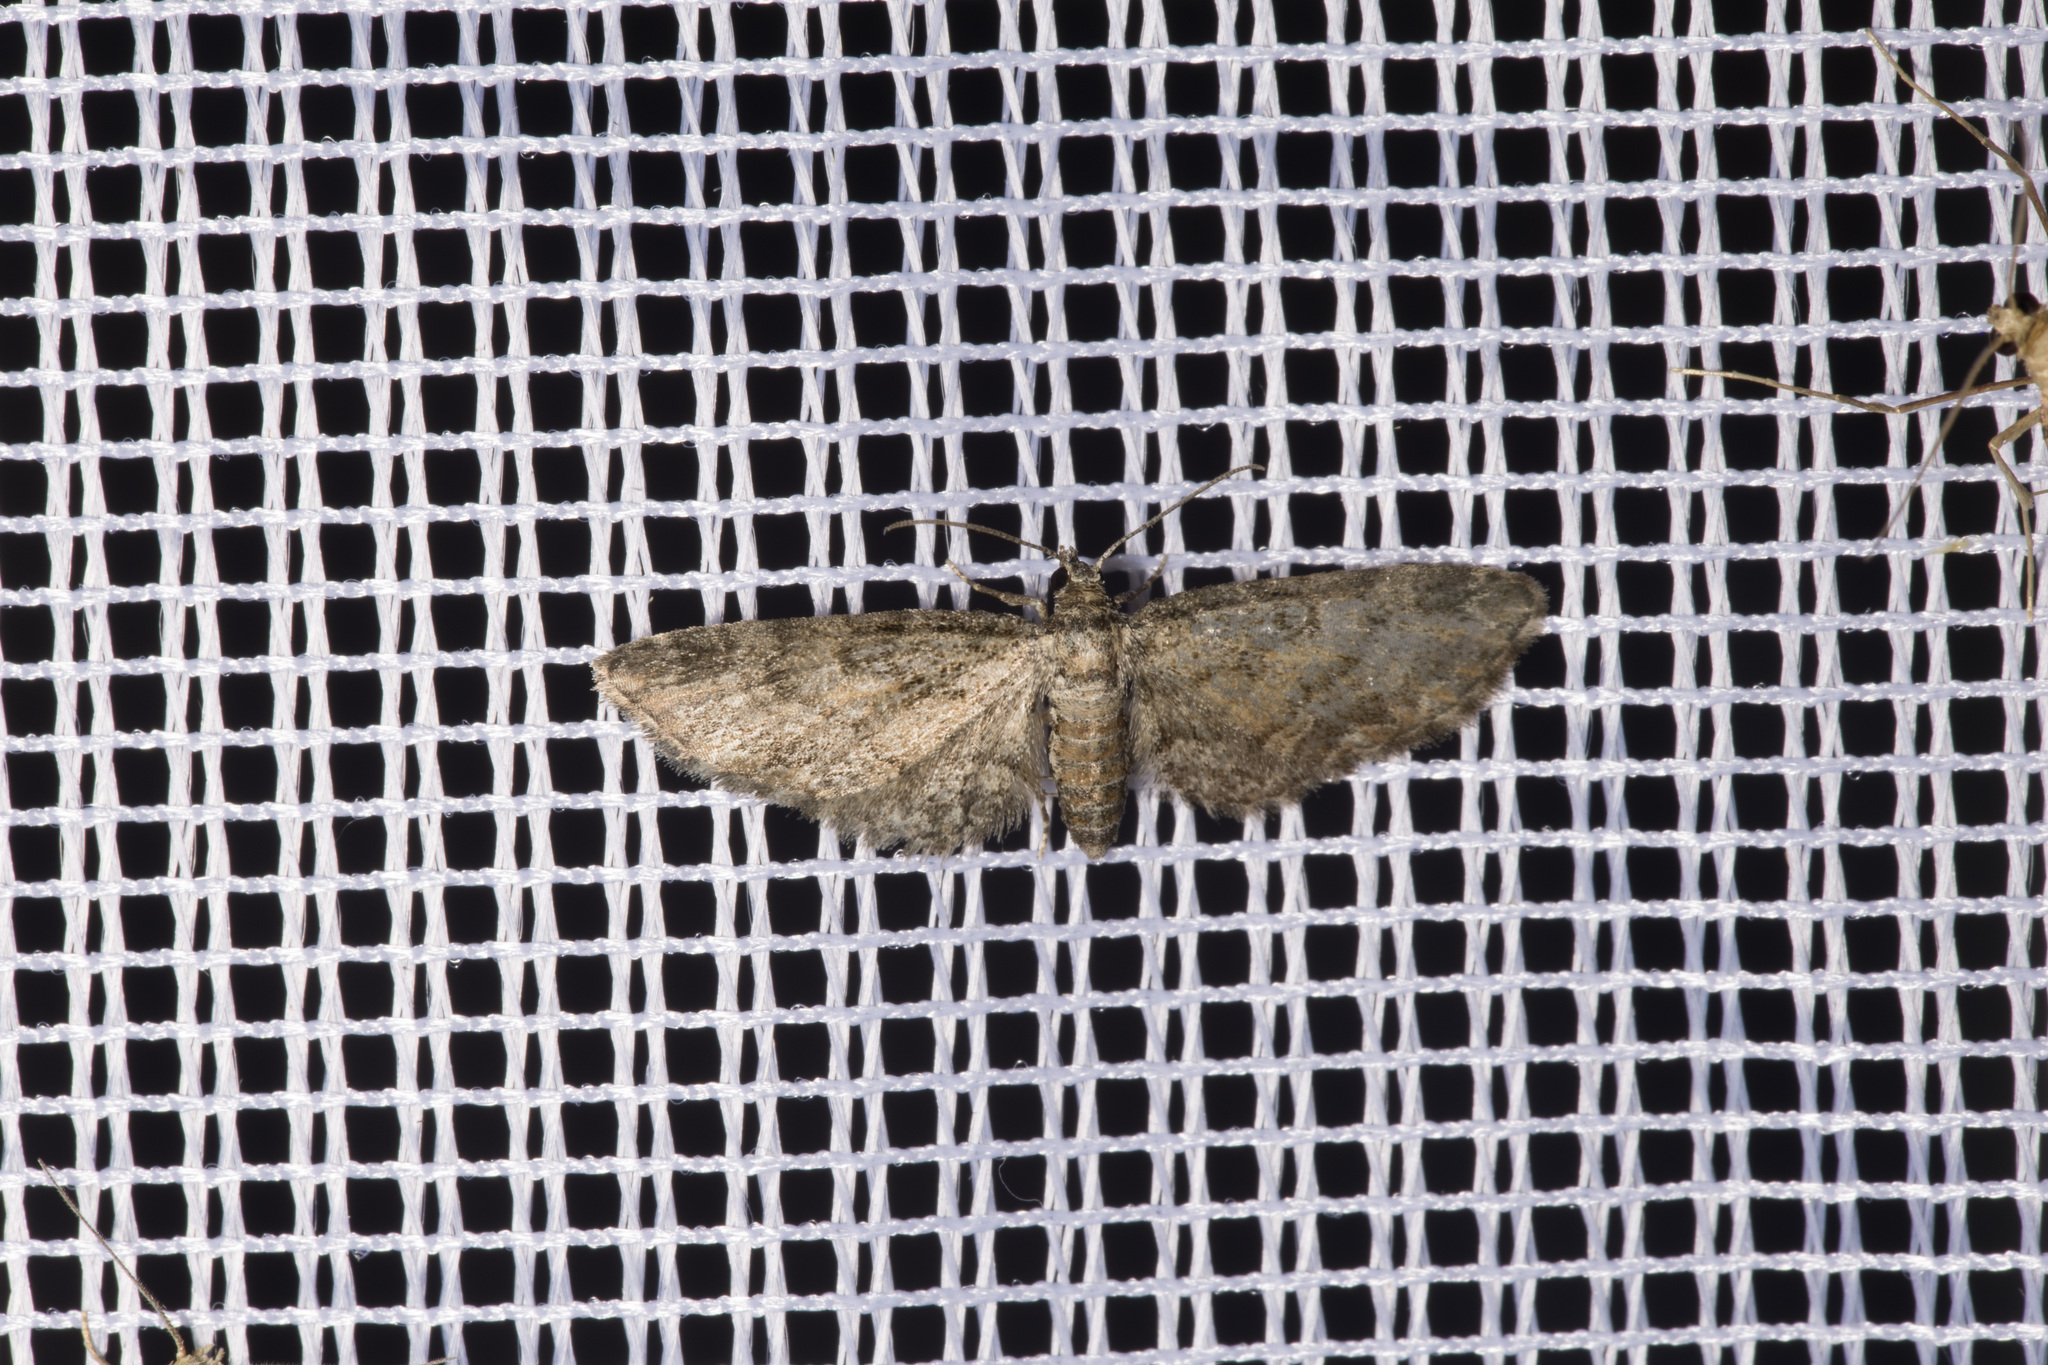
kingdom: Animalia
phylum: Arthropoda
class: Insecta
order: Lepidoptera
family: Geometridae
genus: Eupithecia
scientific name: Eupithecia inturbata
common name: Maple pug
